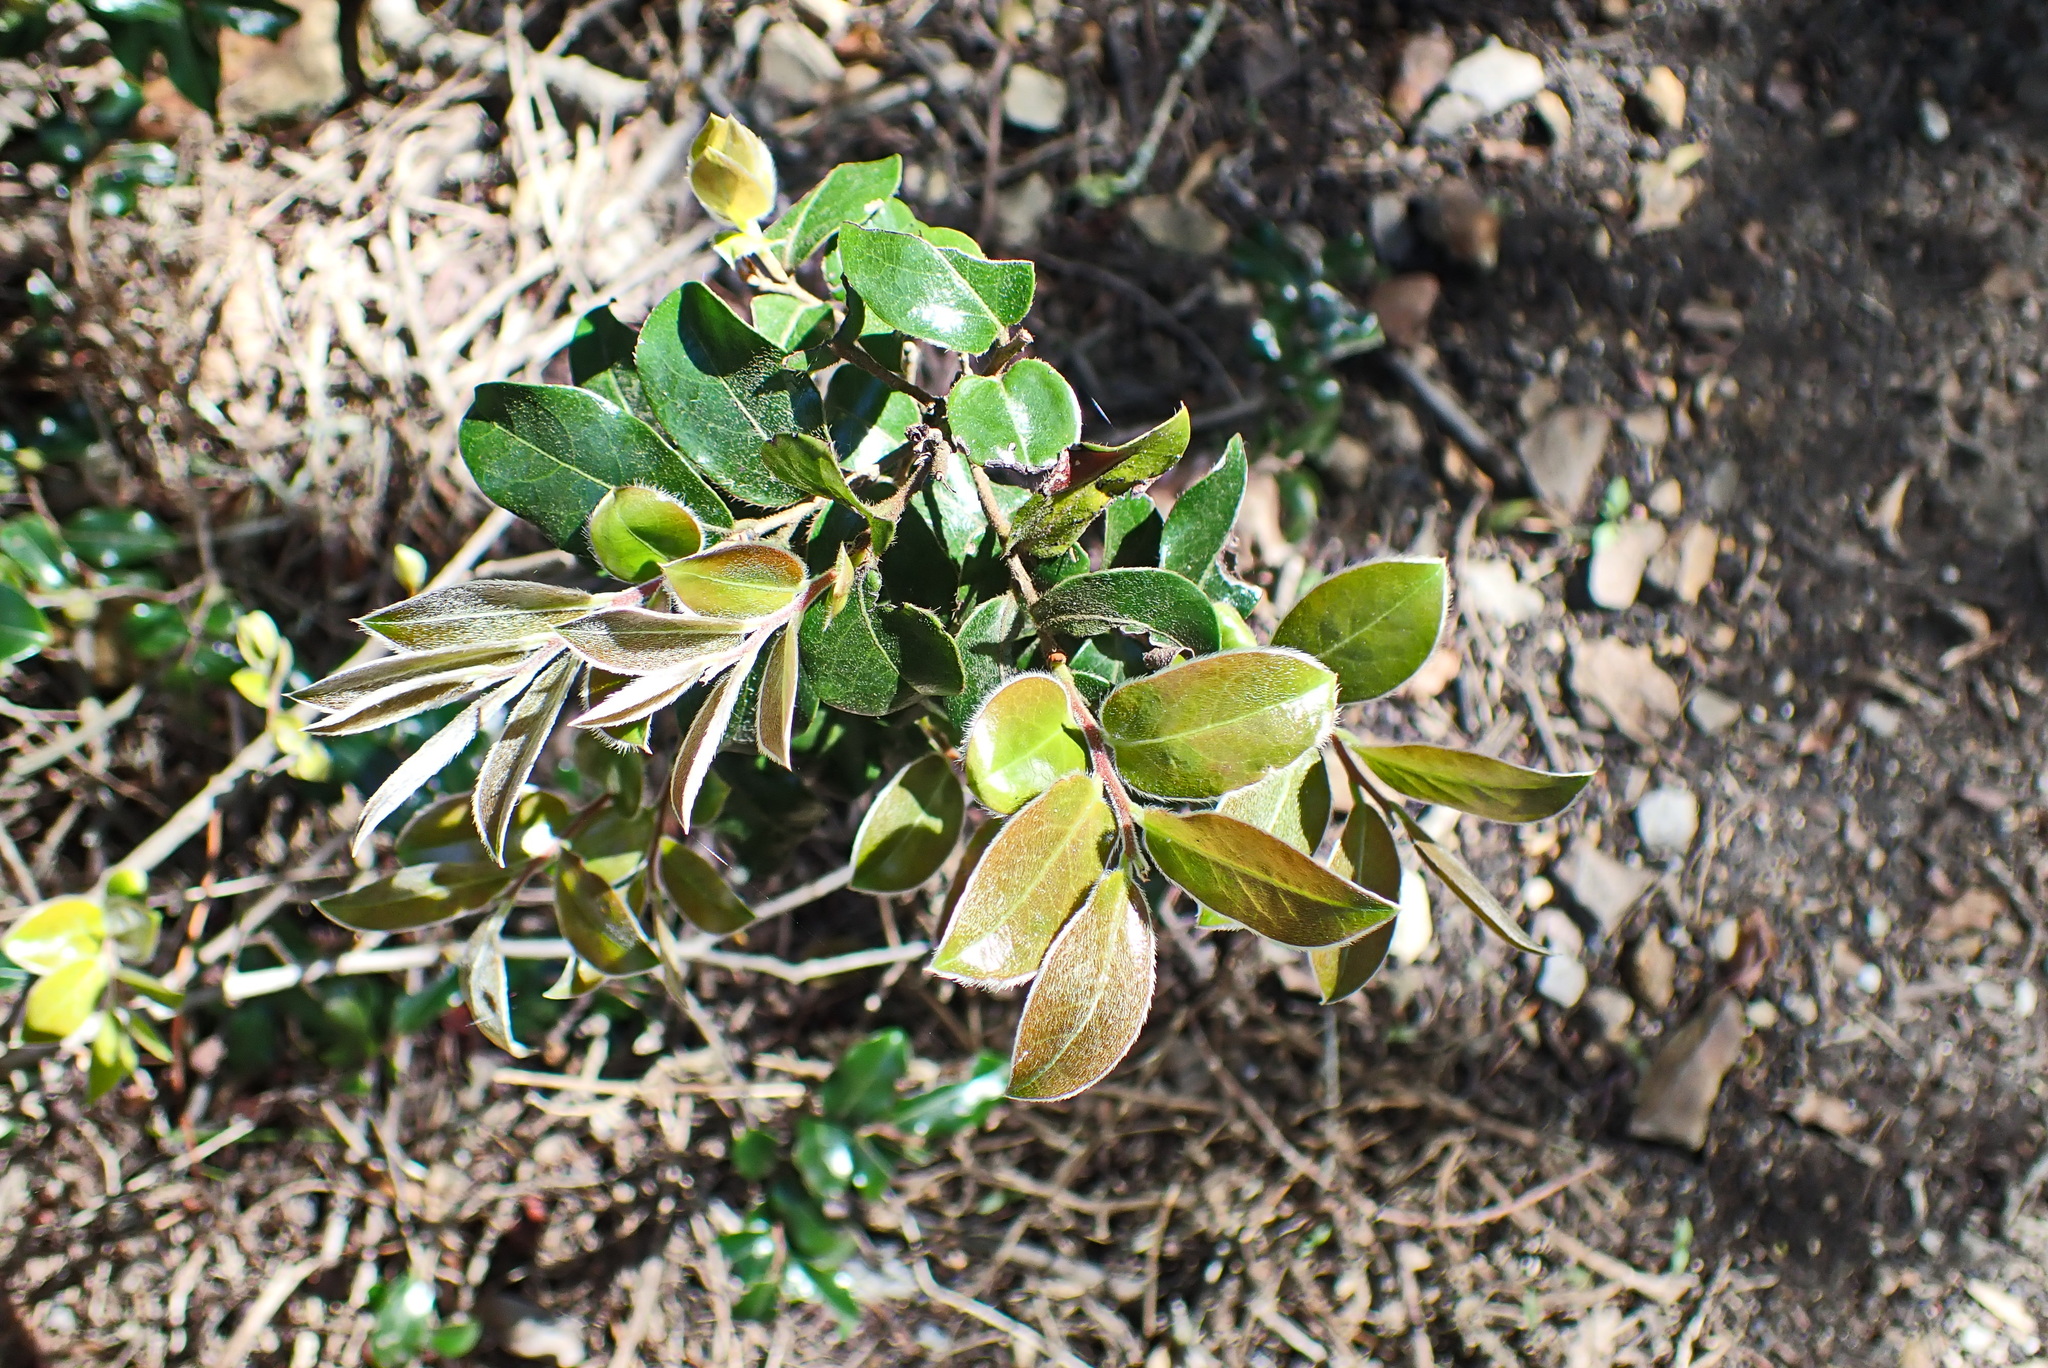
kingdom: Plantae
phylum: Tracheophyta
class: Magnoliopsida
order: Ericales
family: Ebenaceae
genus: Diospyros
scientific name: Diospyros whyteana
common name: Bladder-nut
